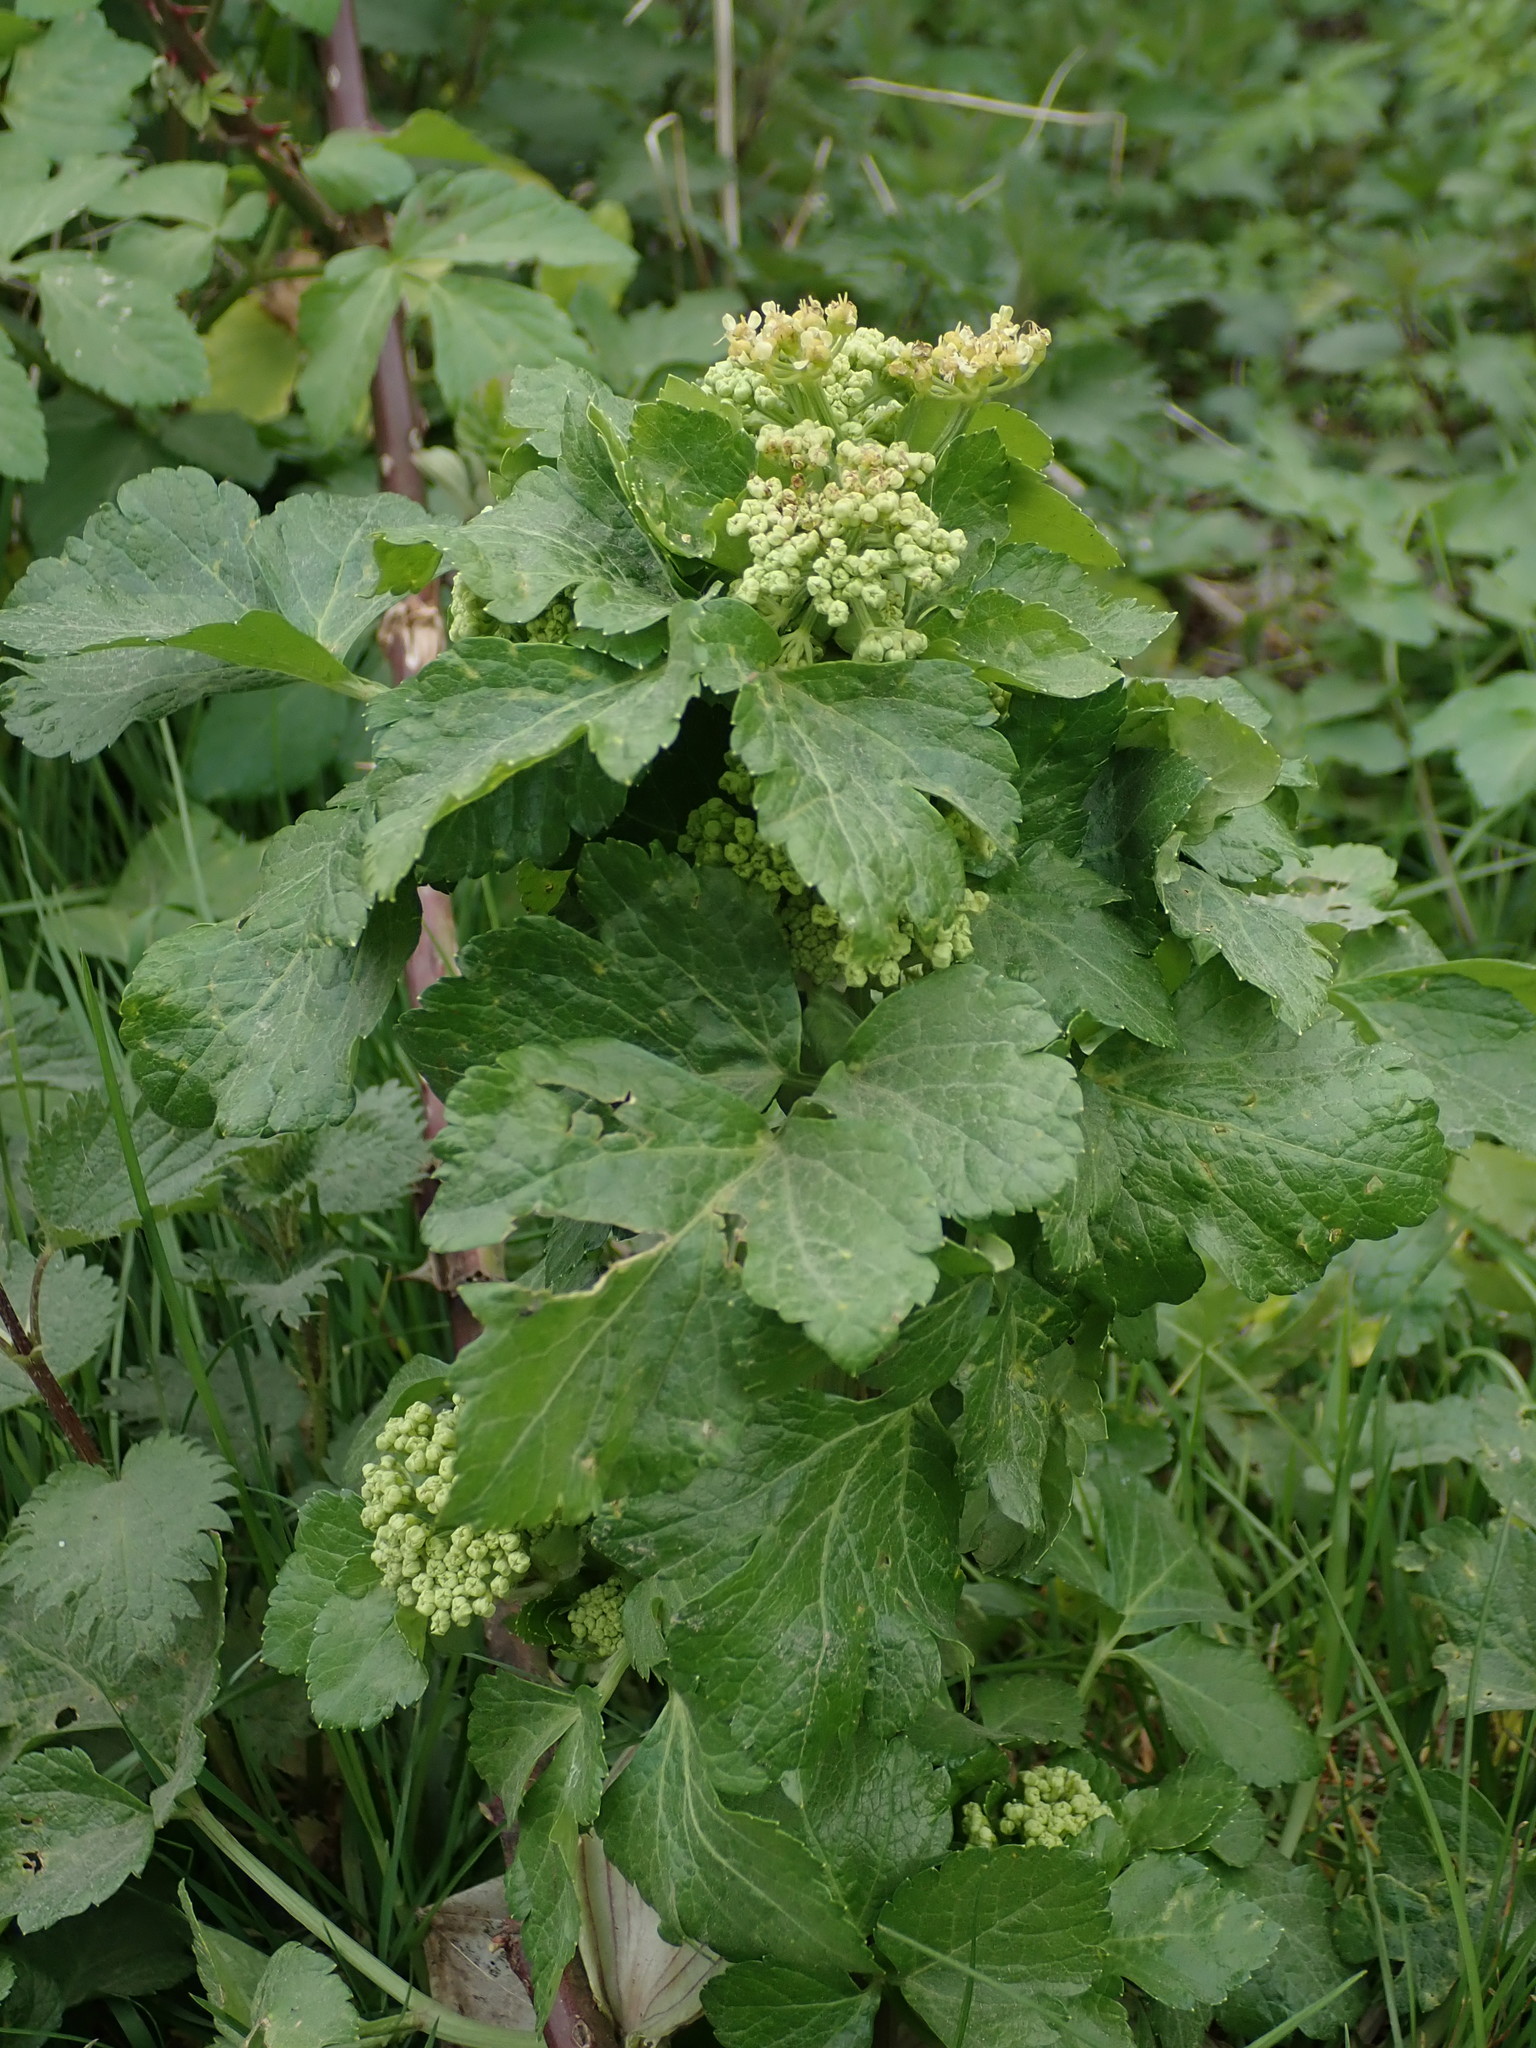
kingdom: Plantae
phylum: Tracheophyta
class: Magnoliopsida
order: Apiales
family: Apiaceae
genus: Smyrnium
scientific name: Smyrnium olusatrum
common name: Alexanders
